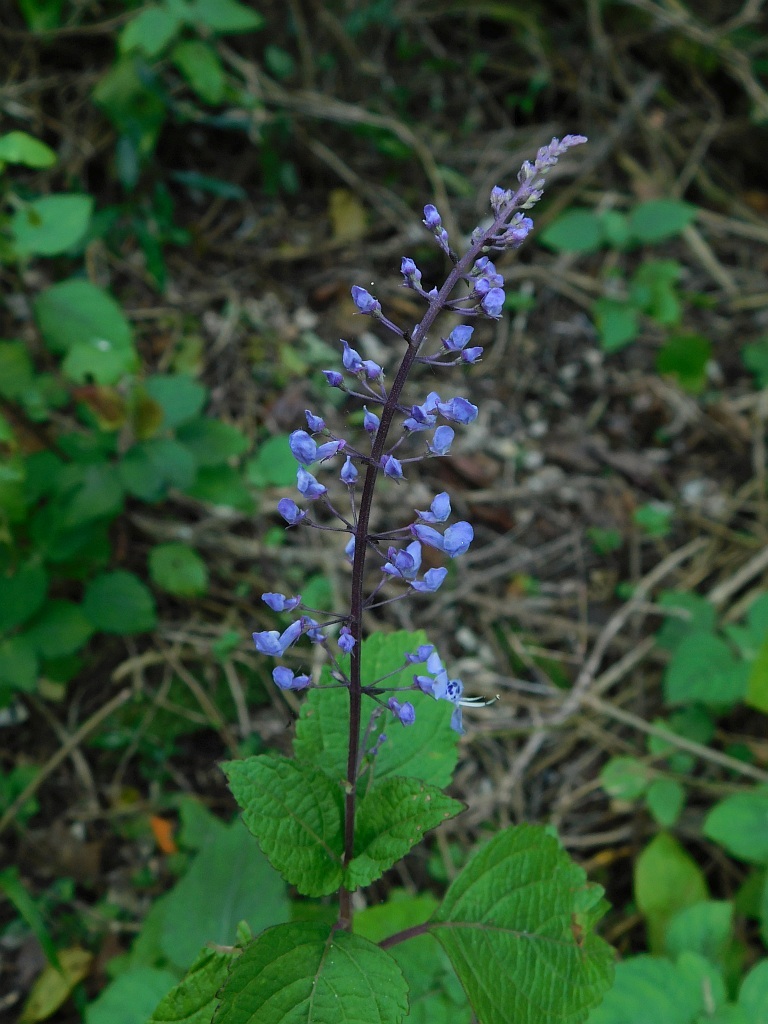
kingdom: Plantae
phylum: Tracheophyta
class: Magnoliopsida
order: Lamiales
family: Lamiaceae
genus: Plectranthus
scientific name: Plectranthus fruticosus
